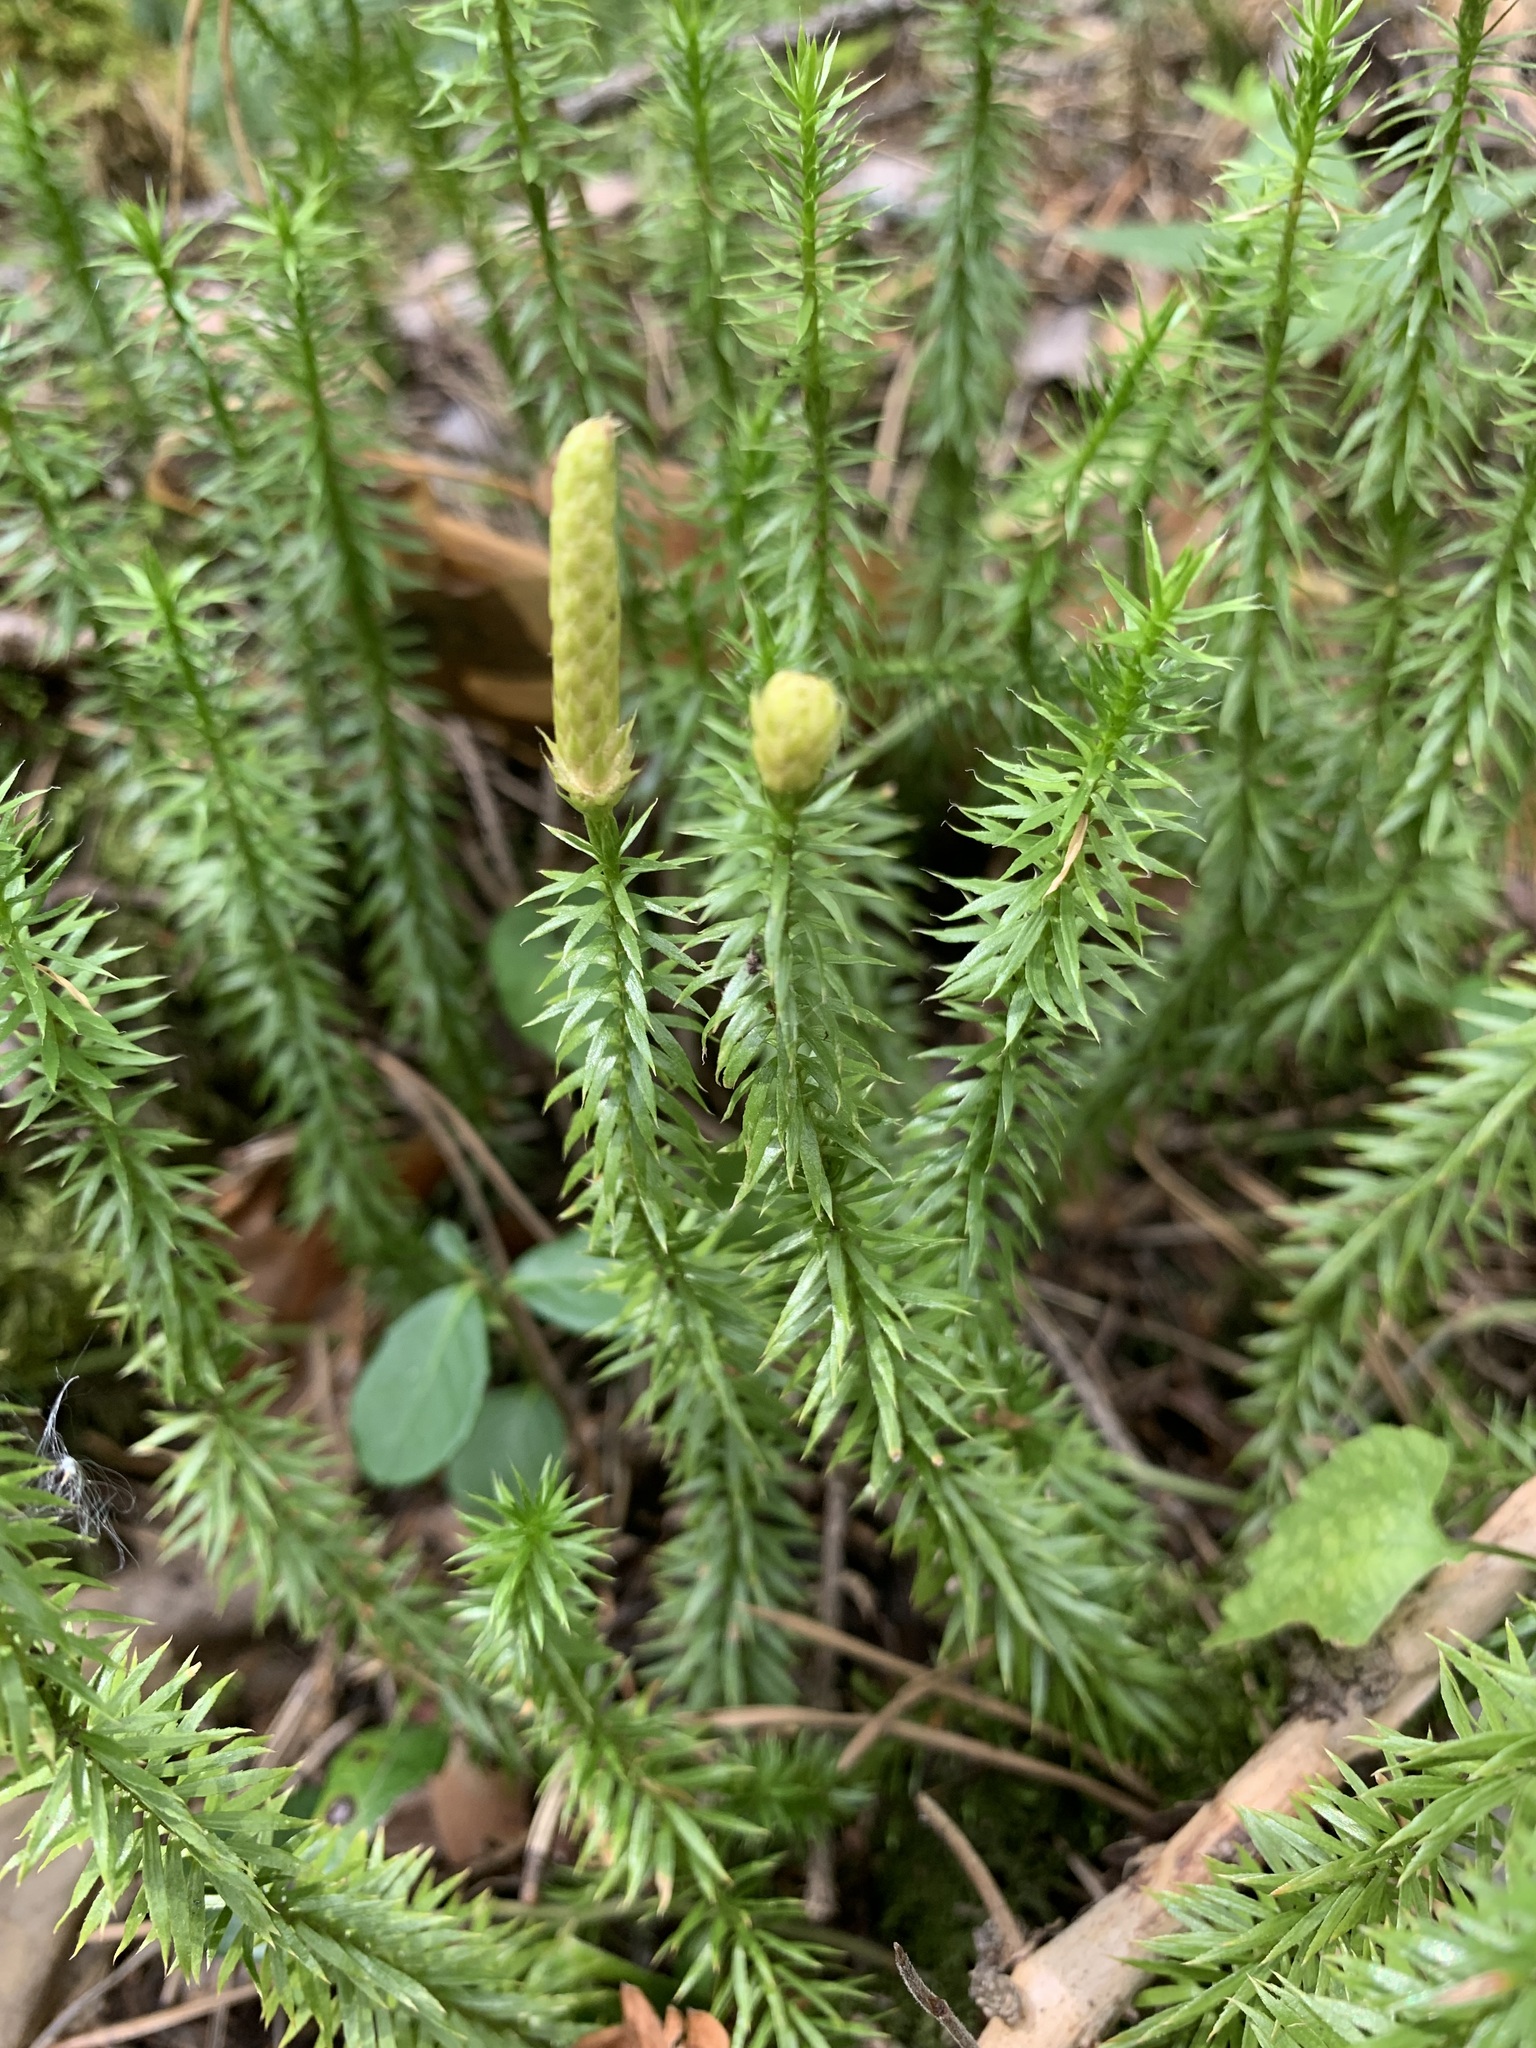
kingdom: Plantae
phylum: Tracheophyta
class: Lycopodiopsida
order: Lycopodiales
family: Lycopodiaceae
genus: Spinulum
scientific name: Spinulum annotinum
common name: Interrupted club-moss
